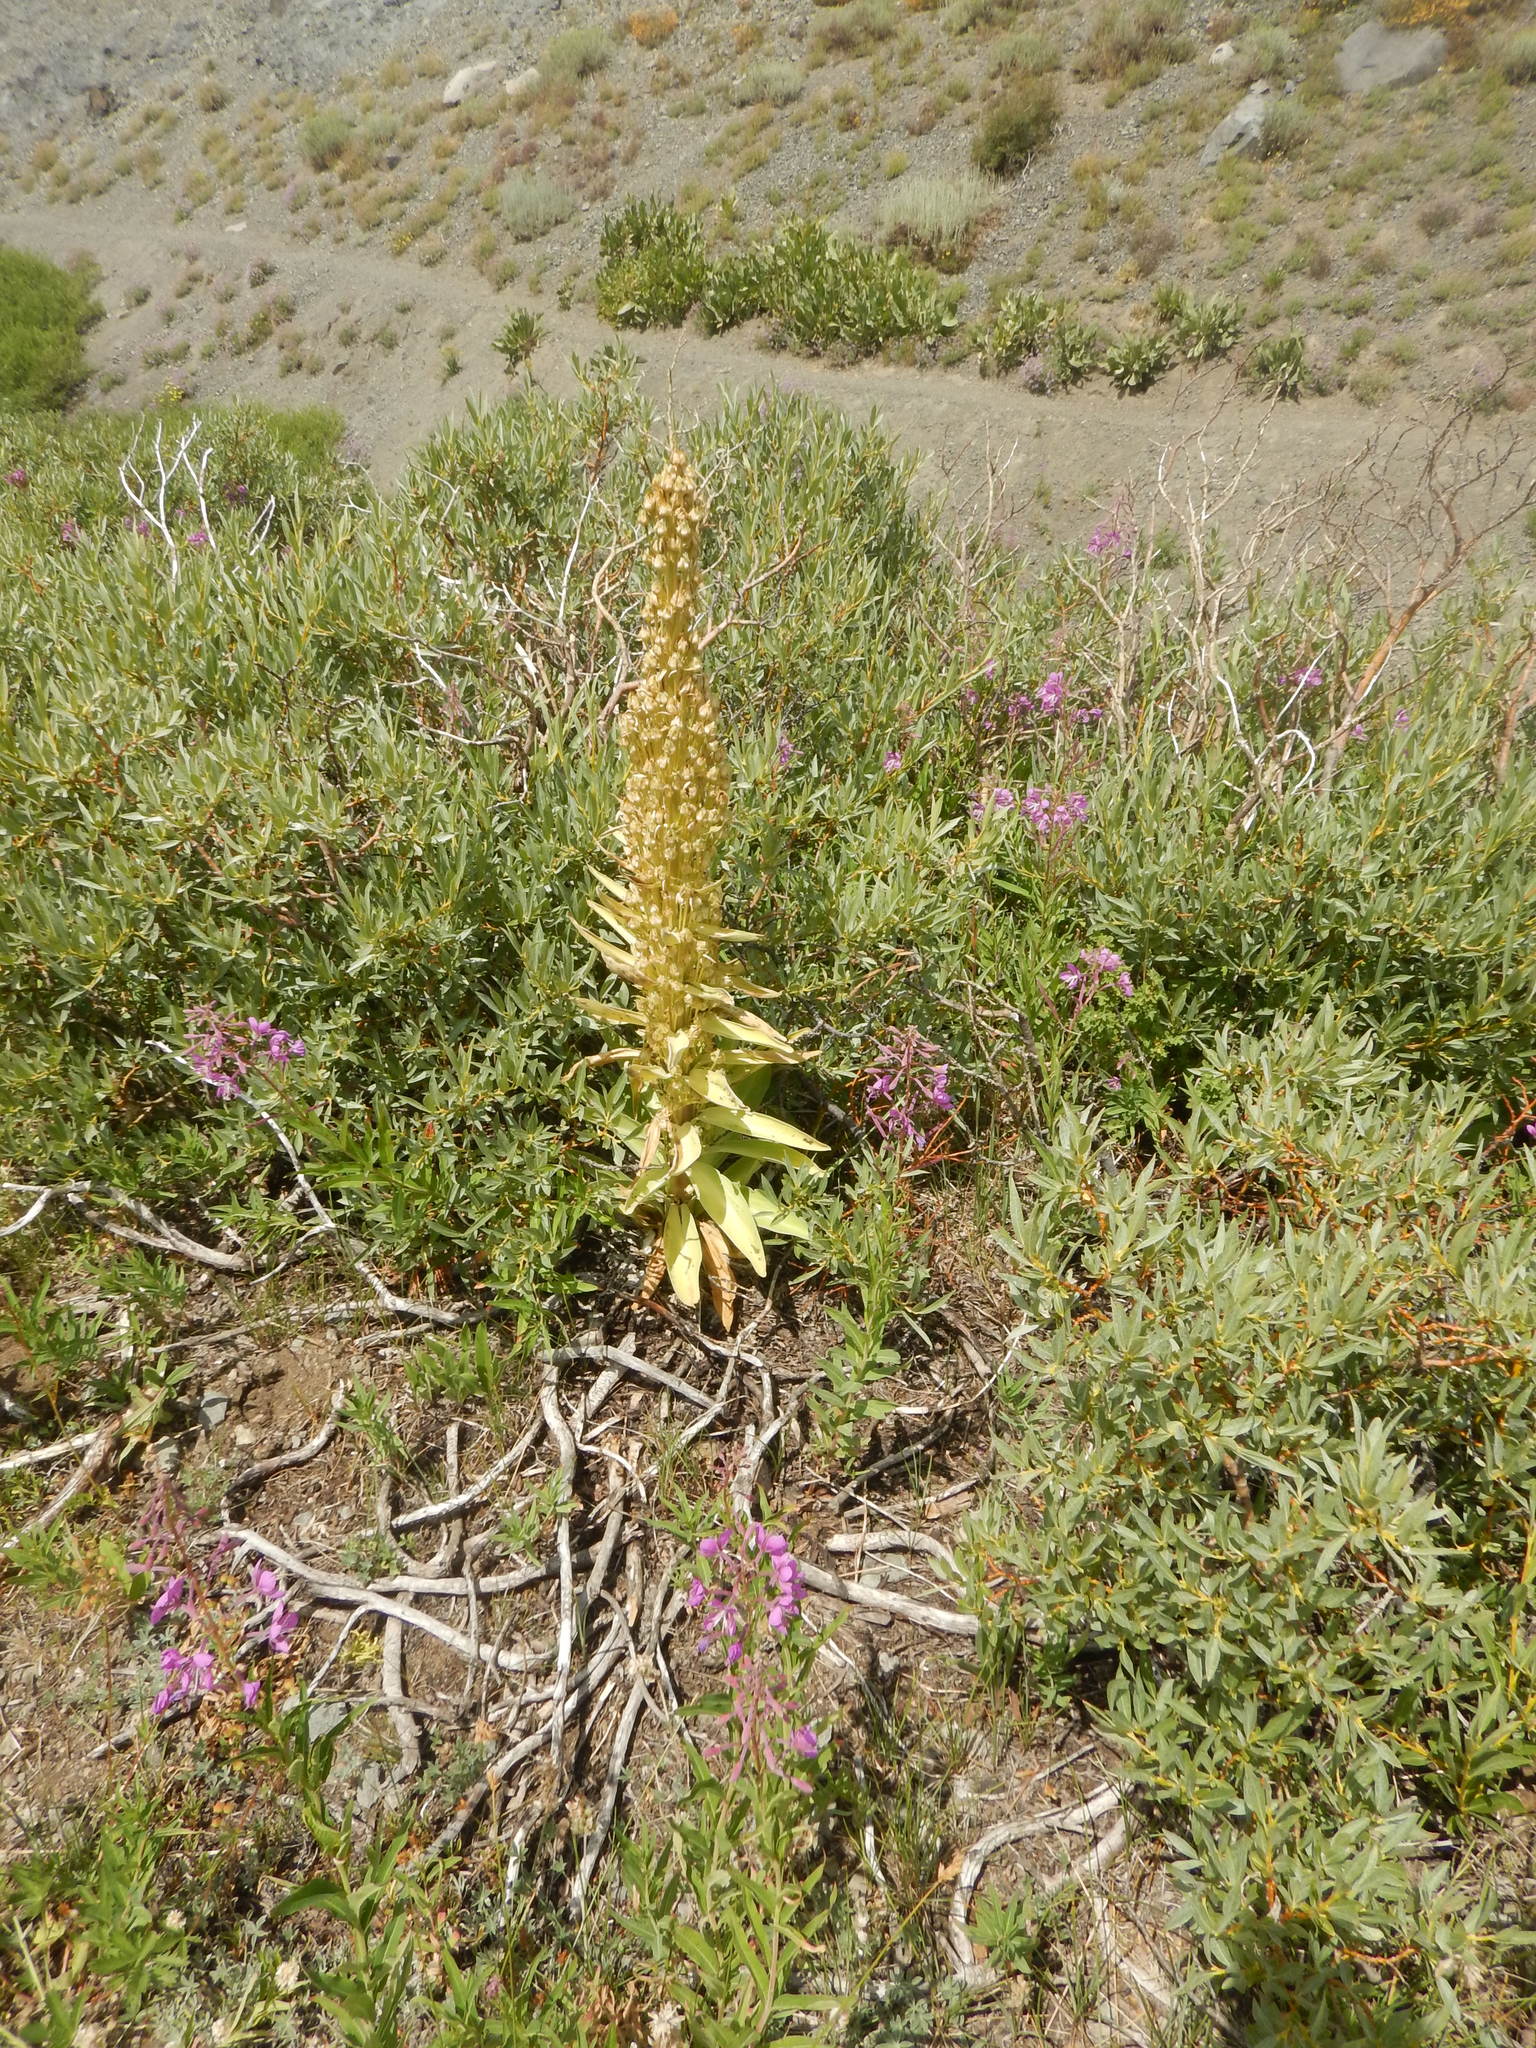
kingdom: Plantae
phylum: Tracheophyta
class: Magnoliopsida
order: Gentianales
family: Gentianaceae
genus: Frasera
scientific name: Frasera speciosa
